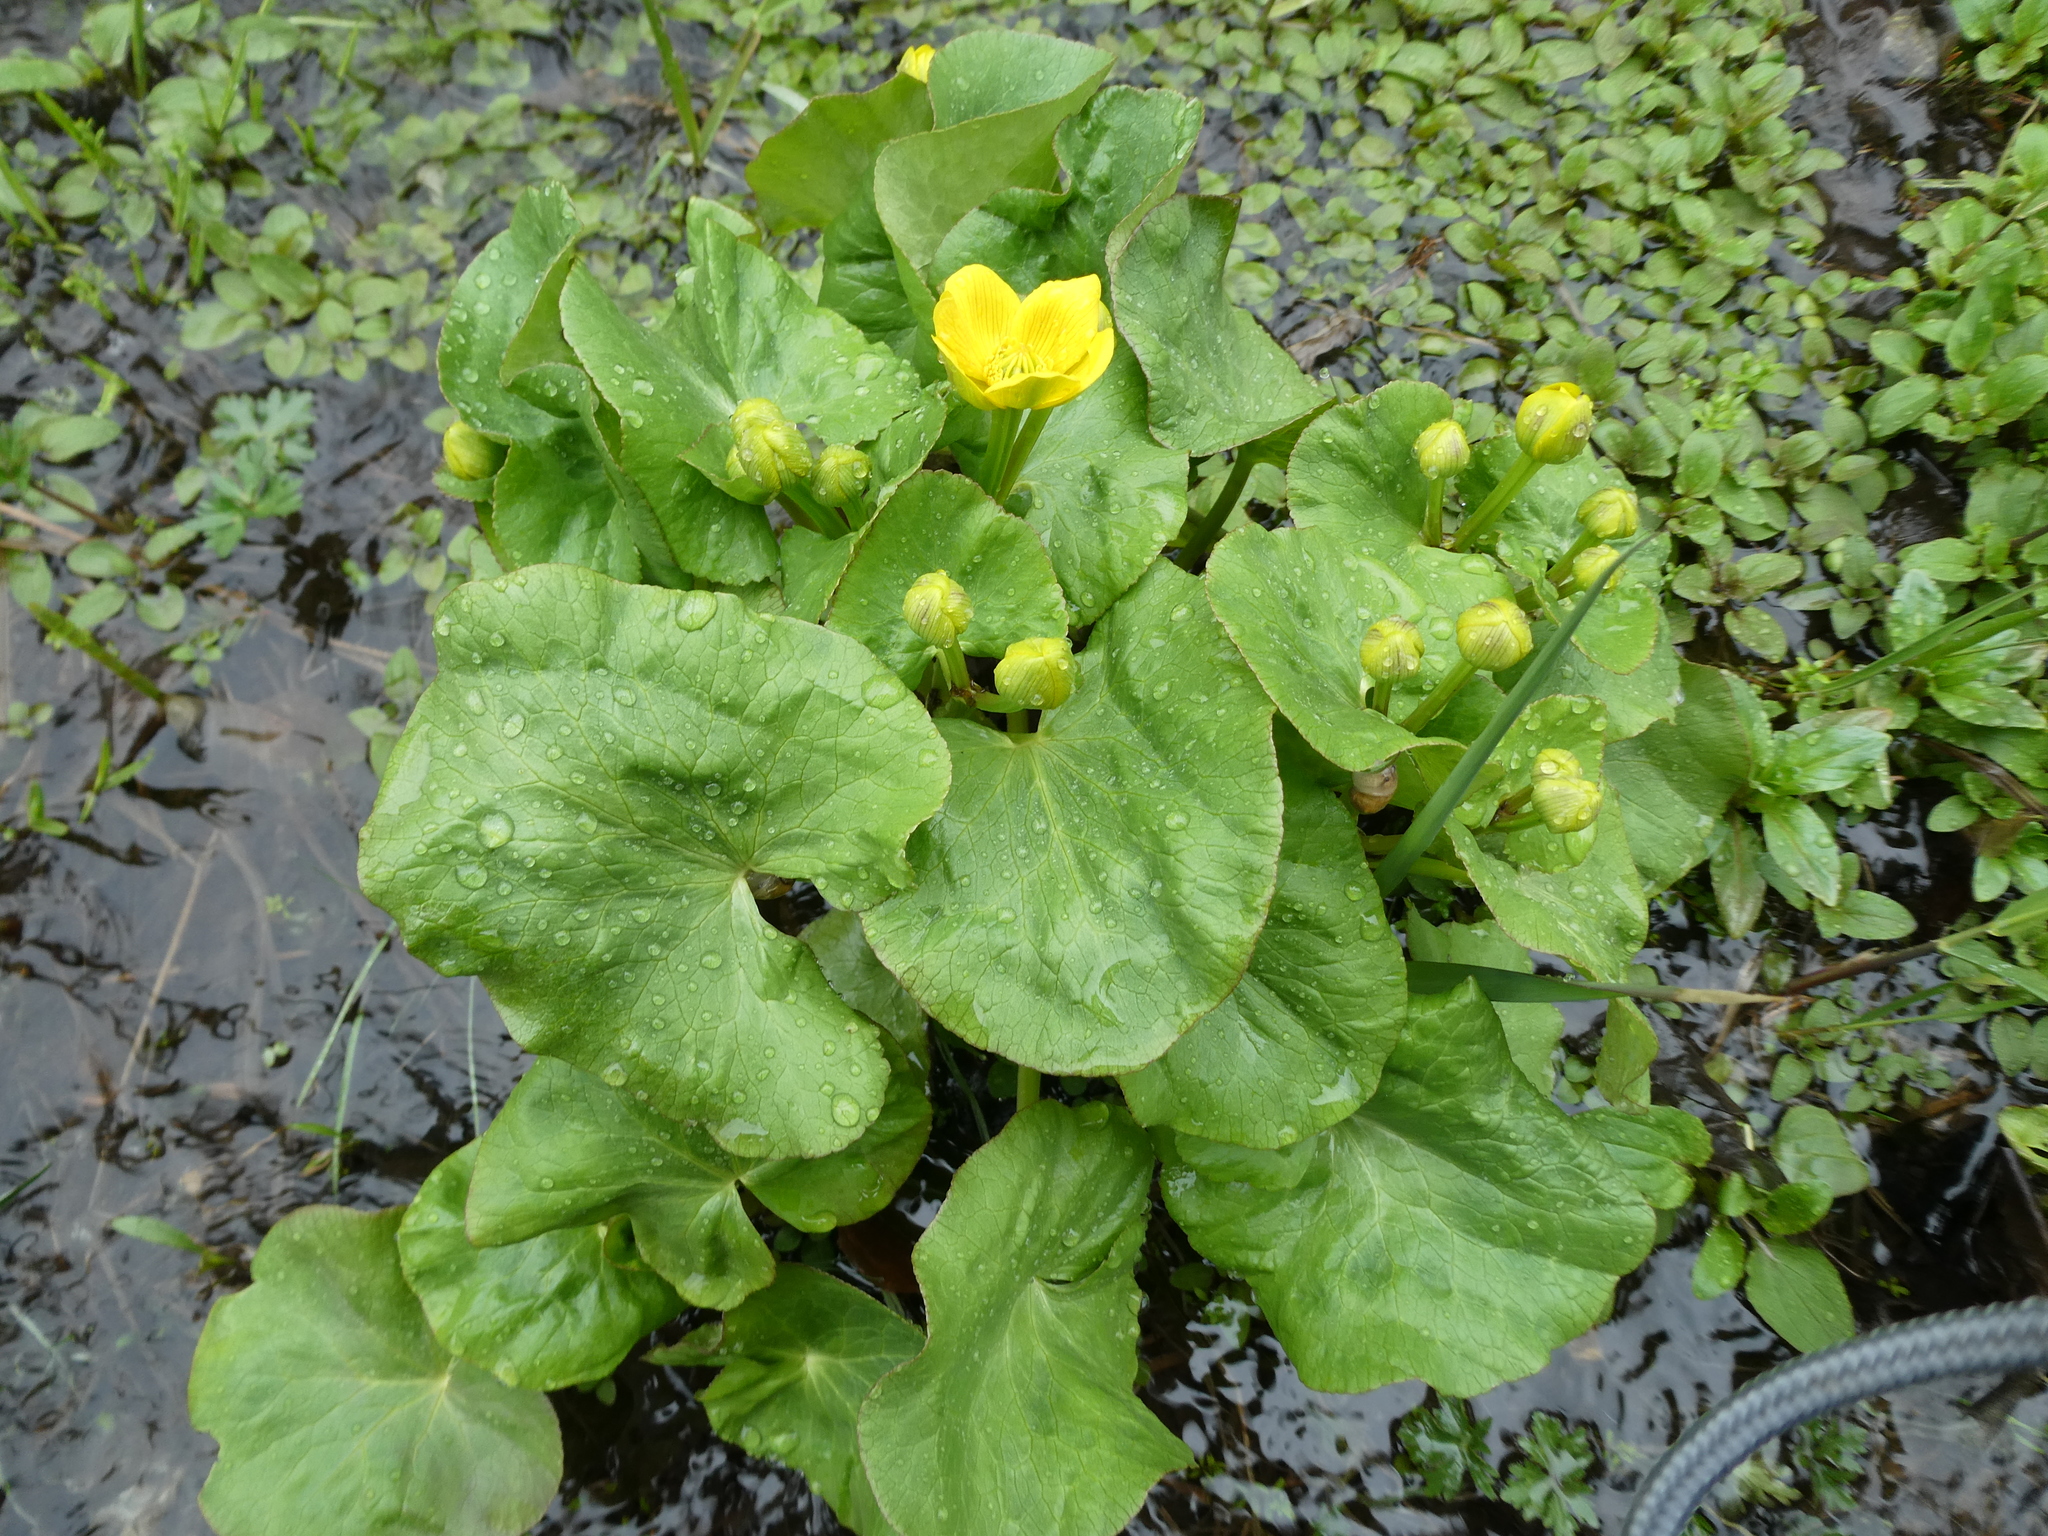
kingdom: Plantae
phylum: Tracheophyta
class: Magnoliopsida
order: Ranunculales
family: Ranunculaceae
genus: Caltha
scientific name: Caltha palustris
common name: Marsh marigold
